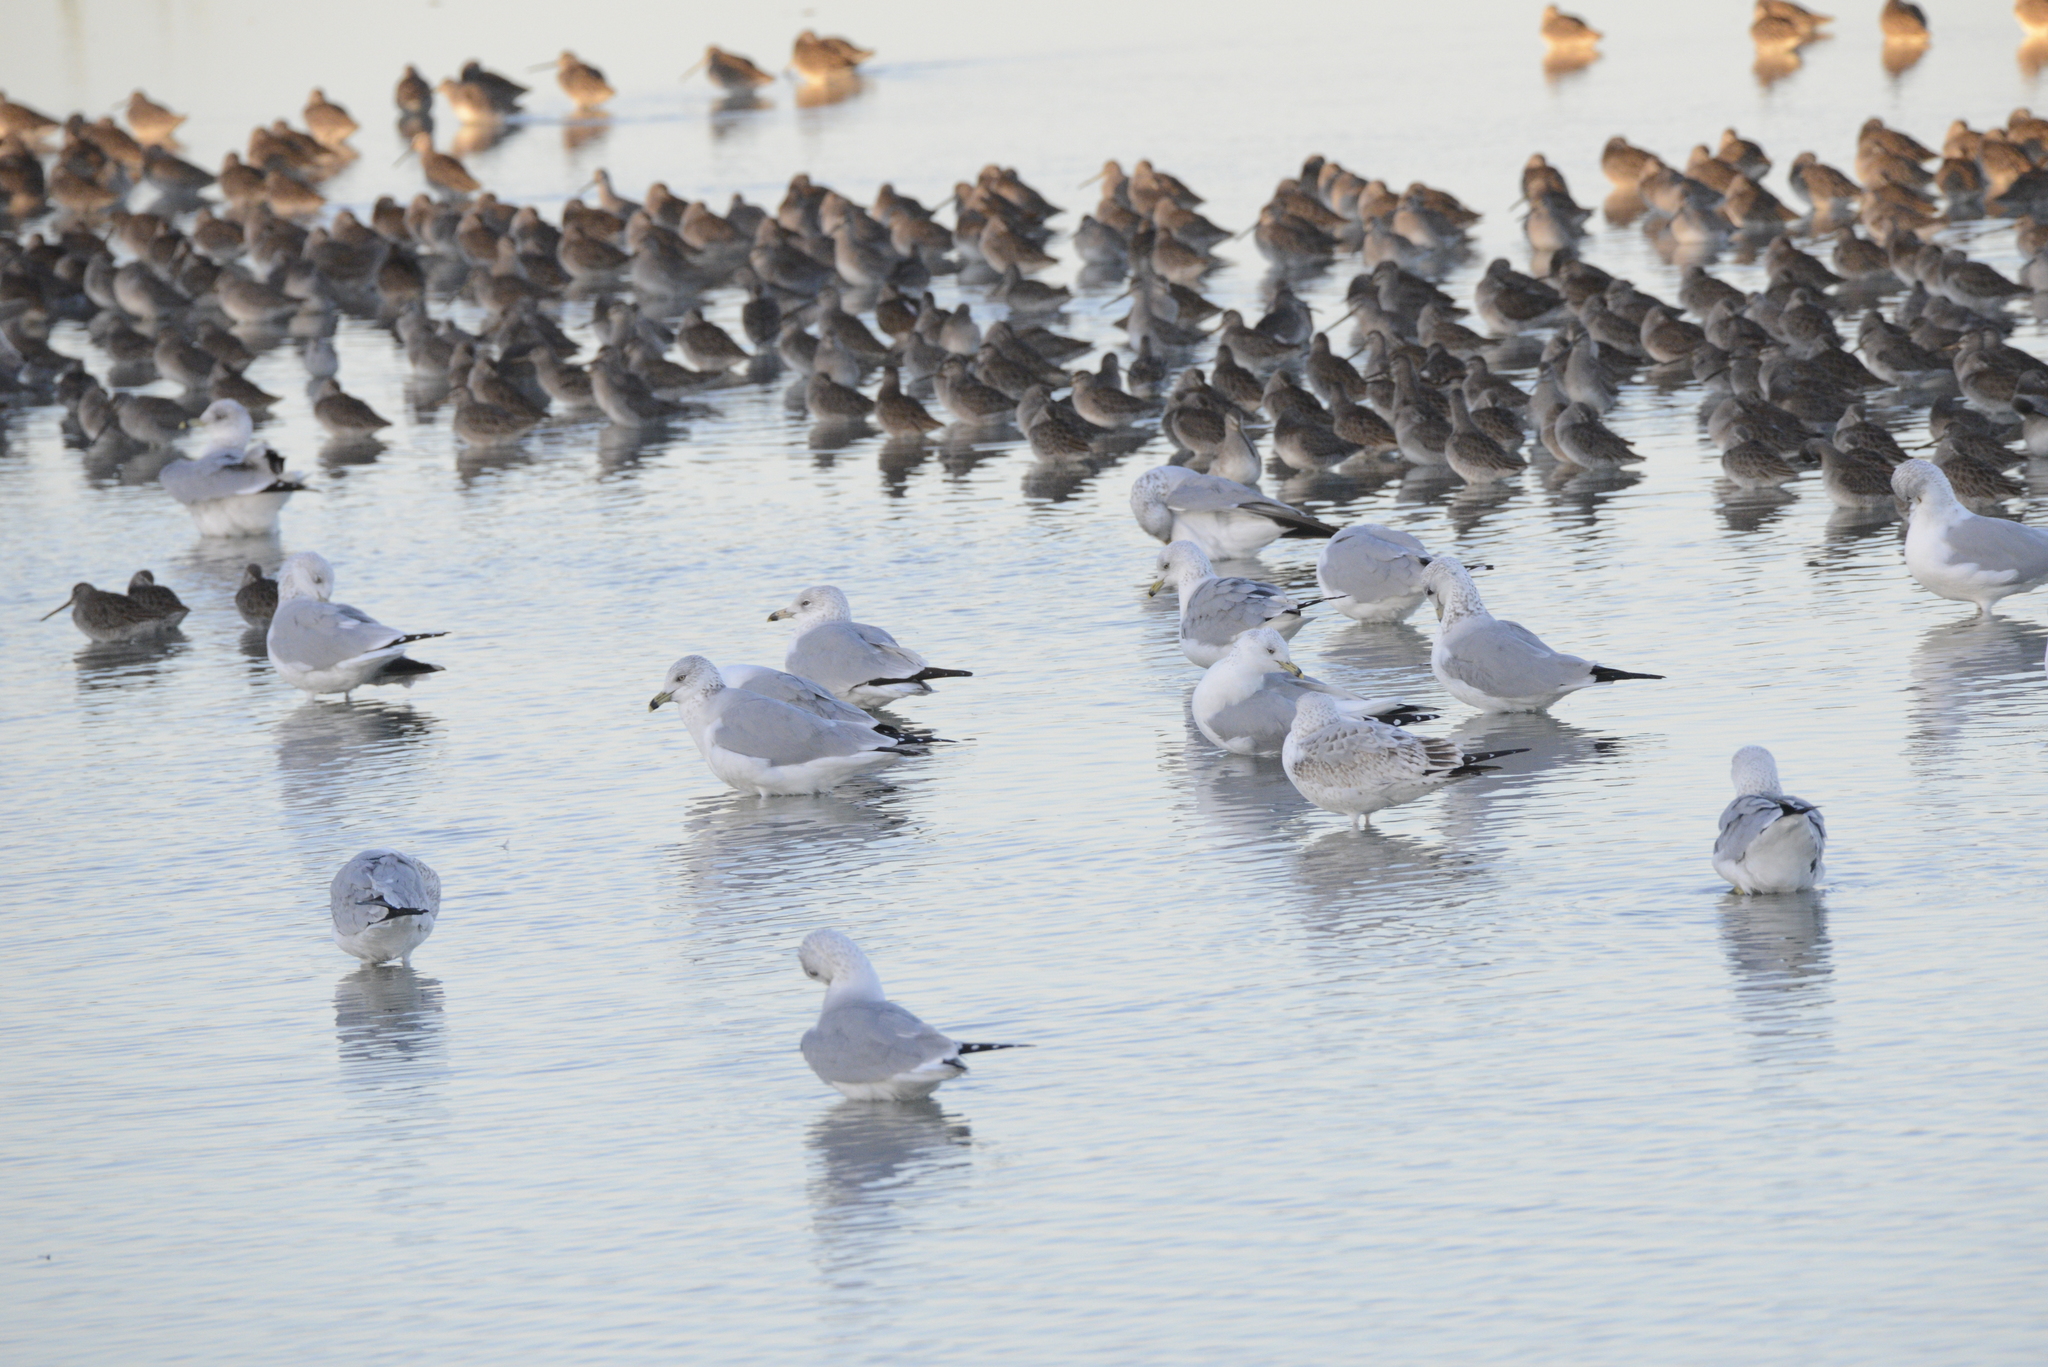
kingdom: Animalia
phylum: Chordata
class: Aves
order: Charadriiformes
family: Laridae
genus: Larus
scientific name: Larus delawarensis
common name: Ring-billed gull
